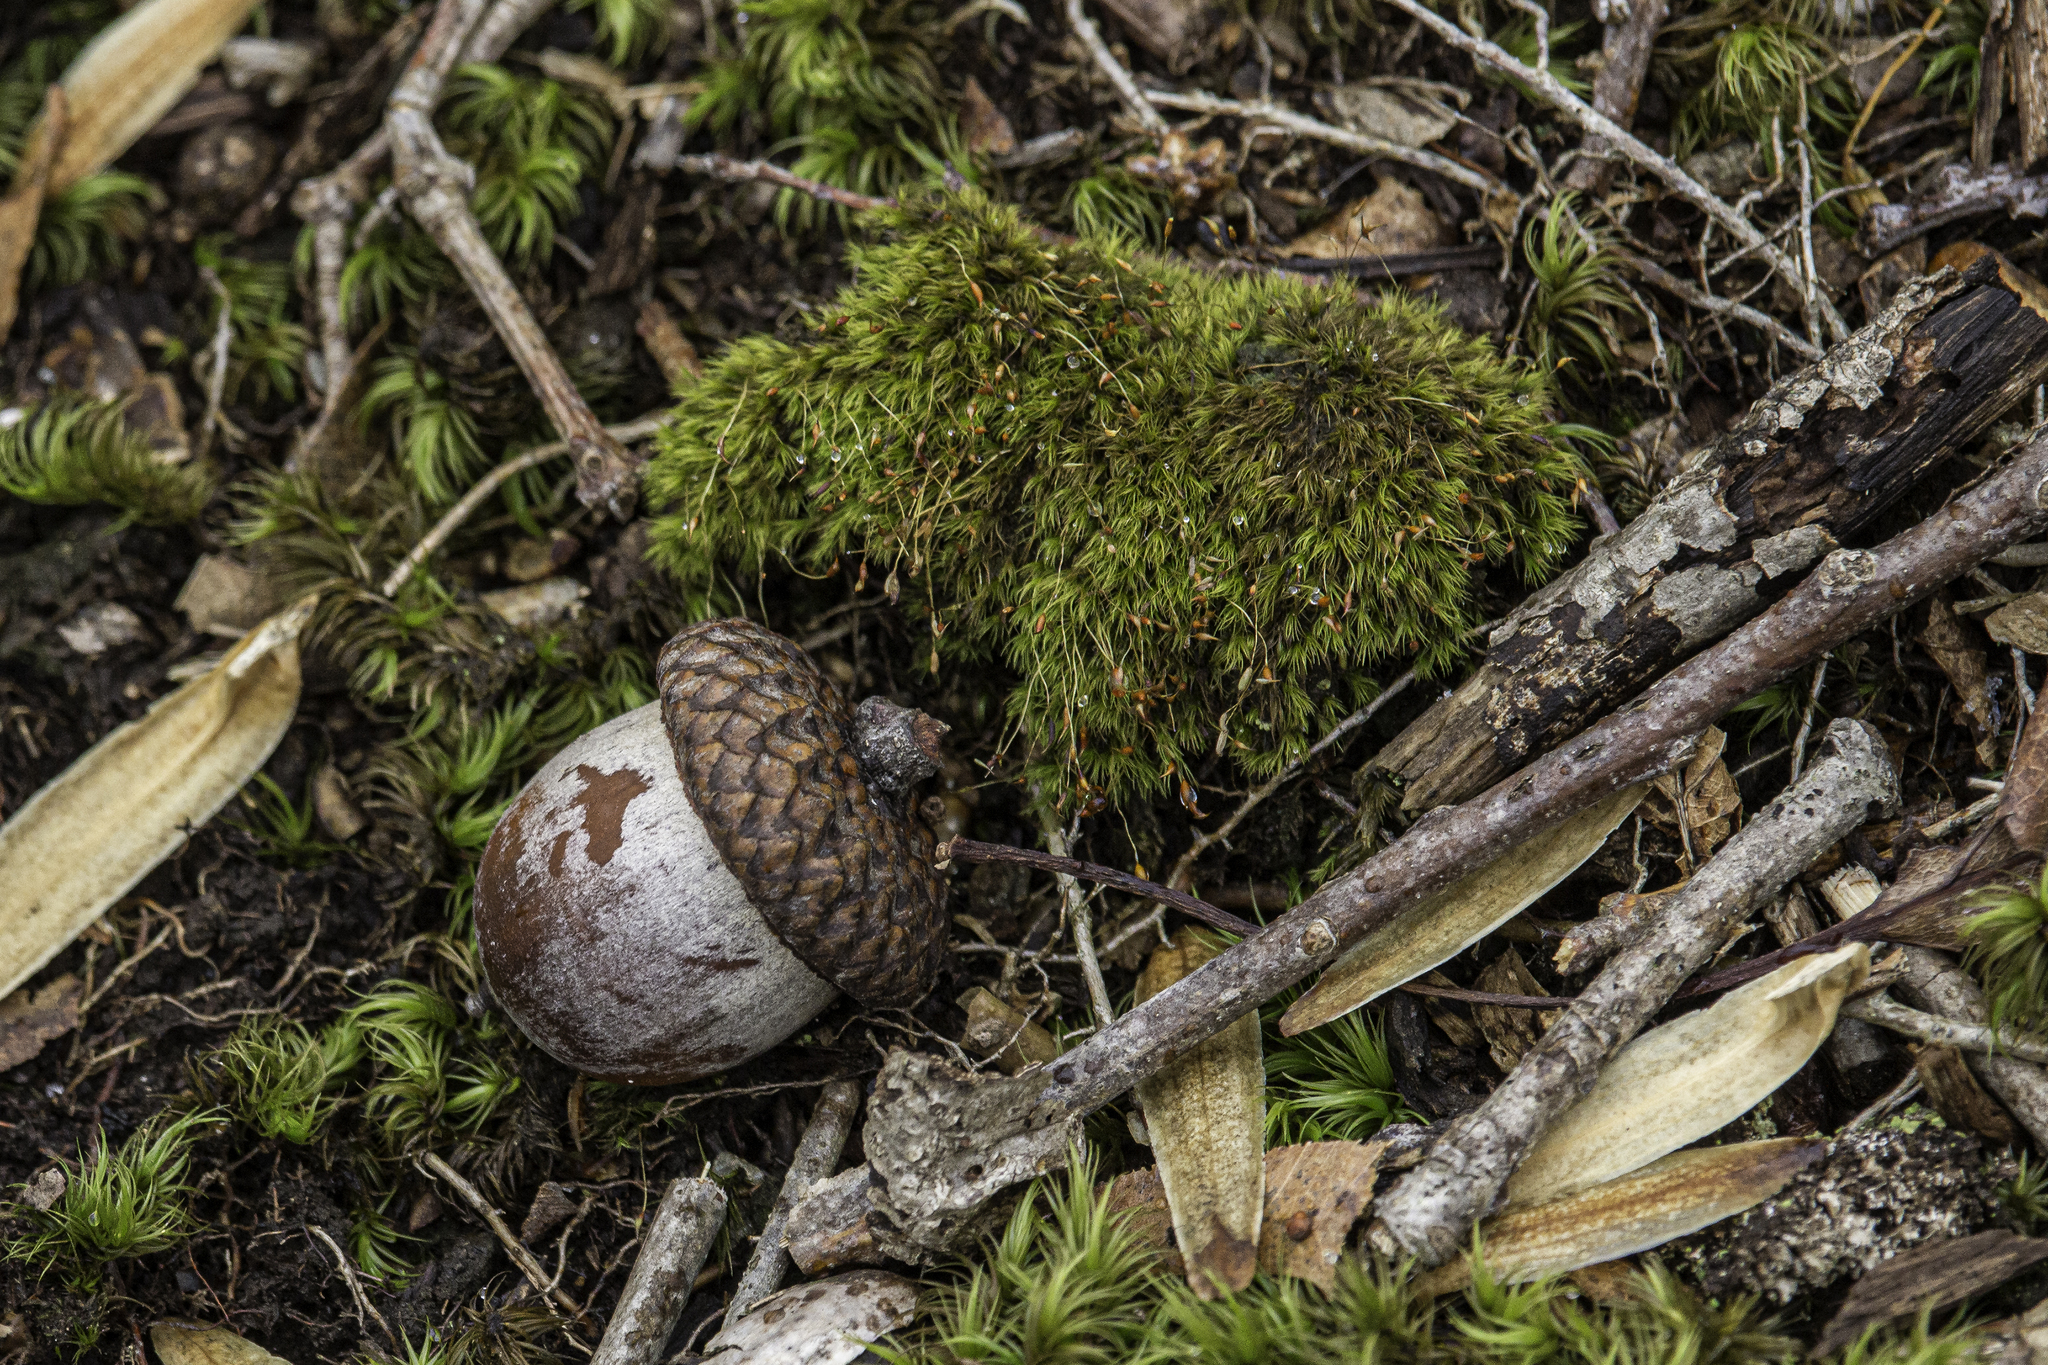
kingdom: Plantae
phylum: Tracheophyta
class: Magnoliopsida
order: Fagales
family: Fagaceae
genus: Quercus
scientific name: Quercus rubra
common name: Red oak
